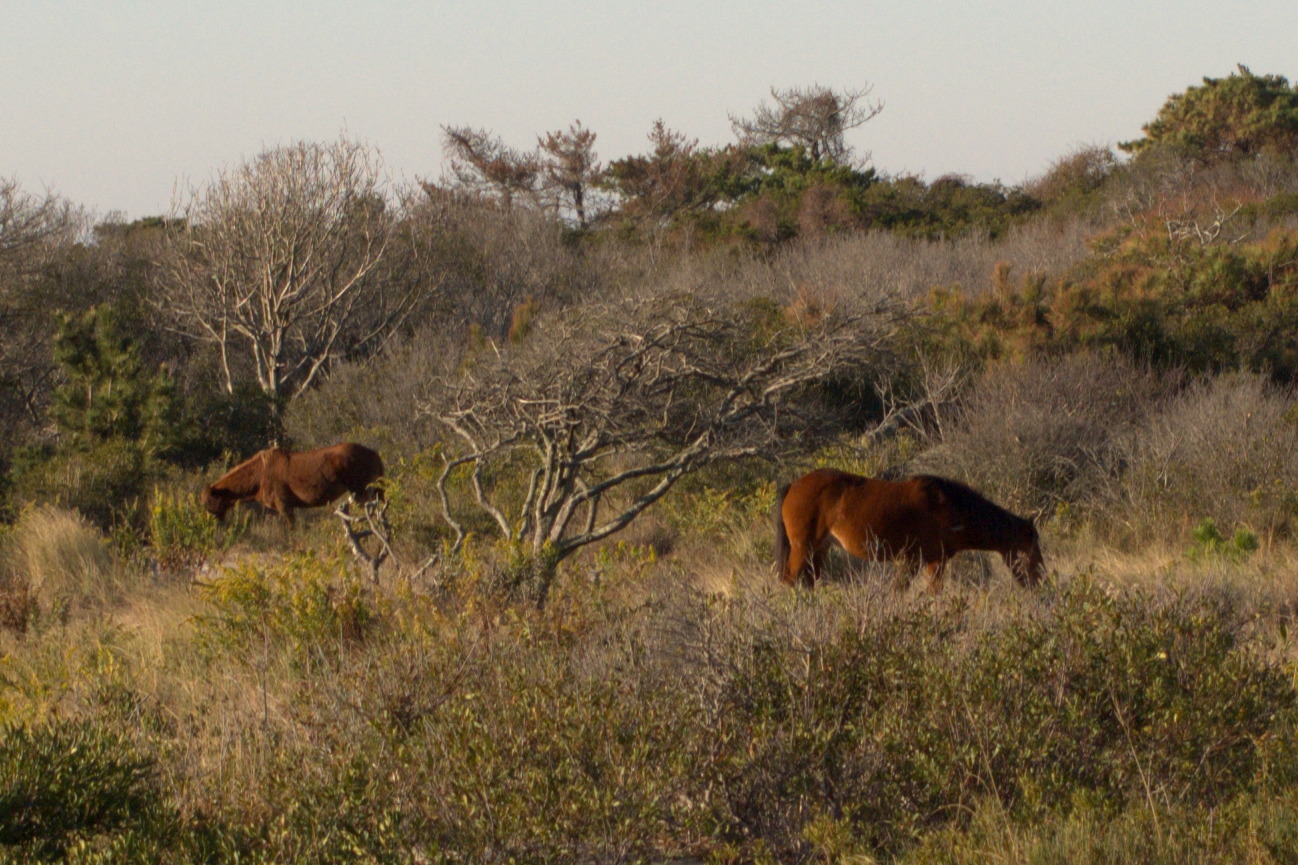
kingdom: Animalia
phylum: Chordata
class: Mammalia
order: Perissodactyla
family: Equidae
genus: Equus
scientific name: Equus caballus
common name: Horse
